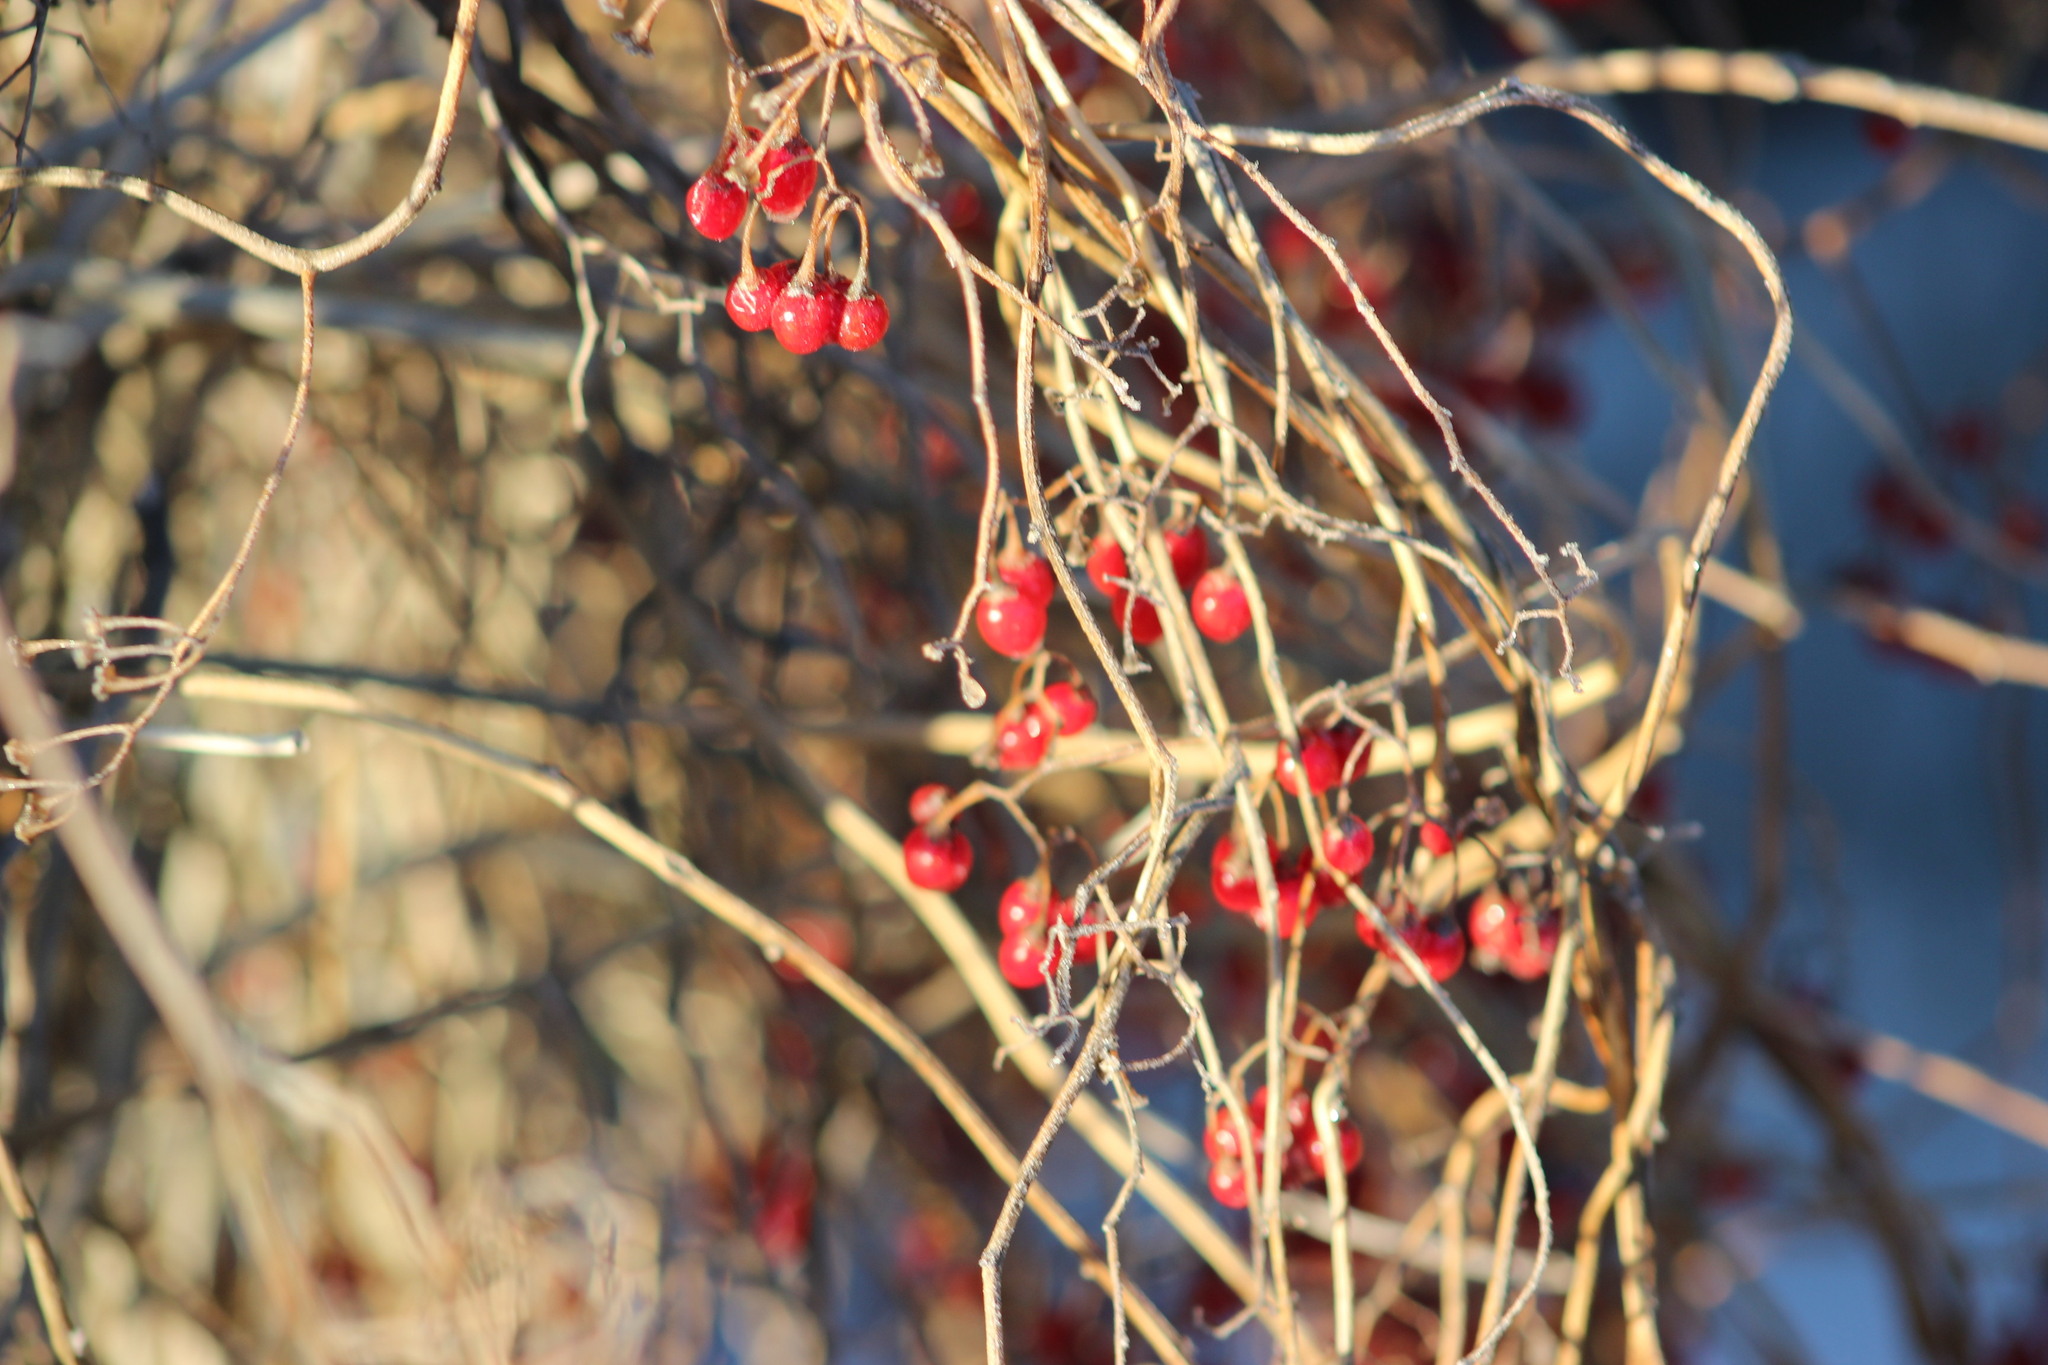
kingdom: Plantae
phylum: Tracheophyta
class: Magnoliopsida
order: Solanales
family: Solanaceae
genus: Solanum
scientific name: Solanum dulcamara
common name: Climbing nightshade
